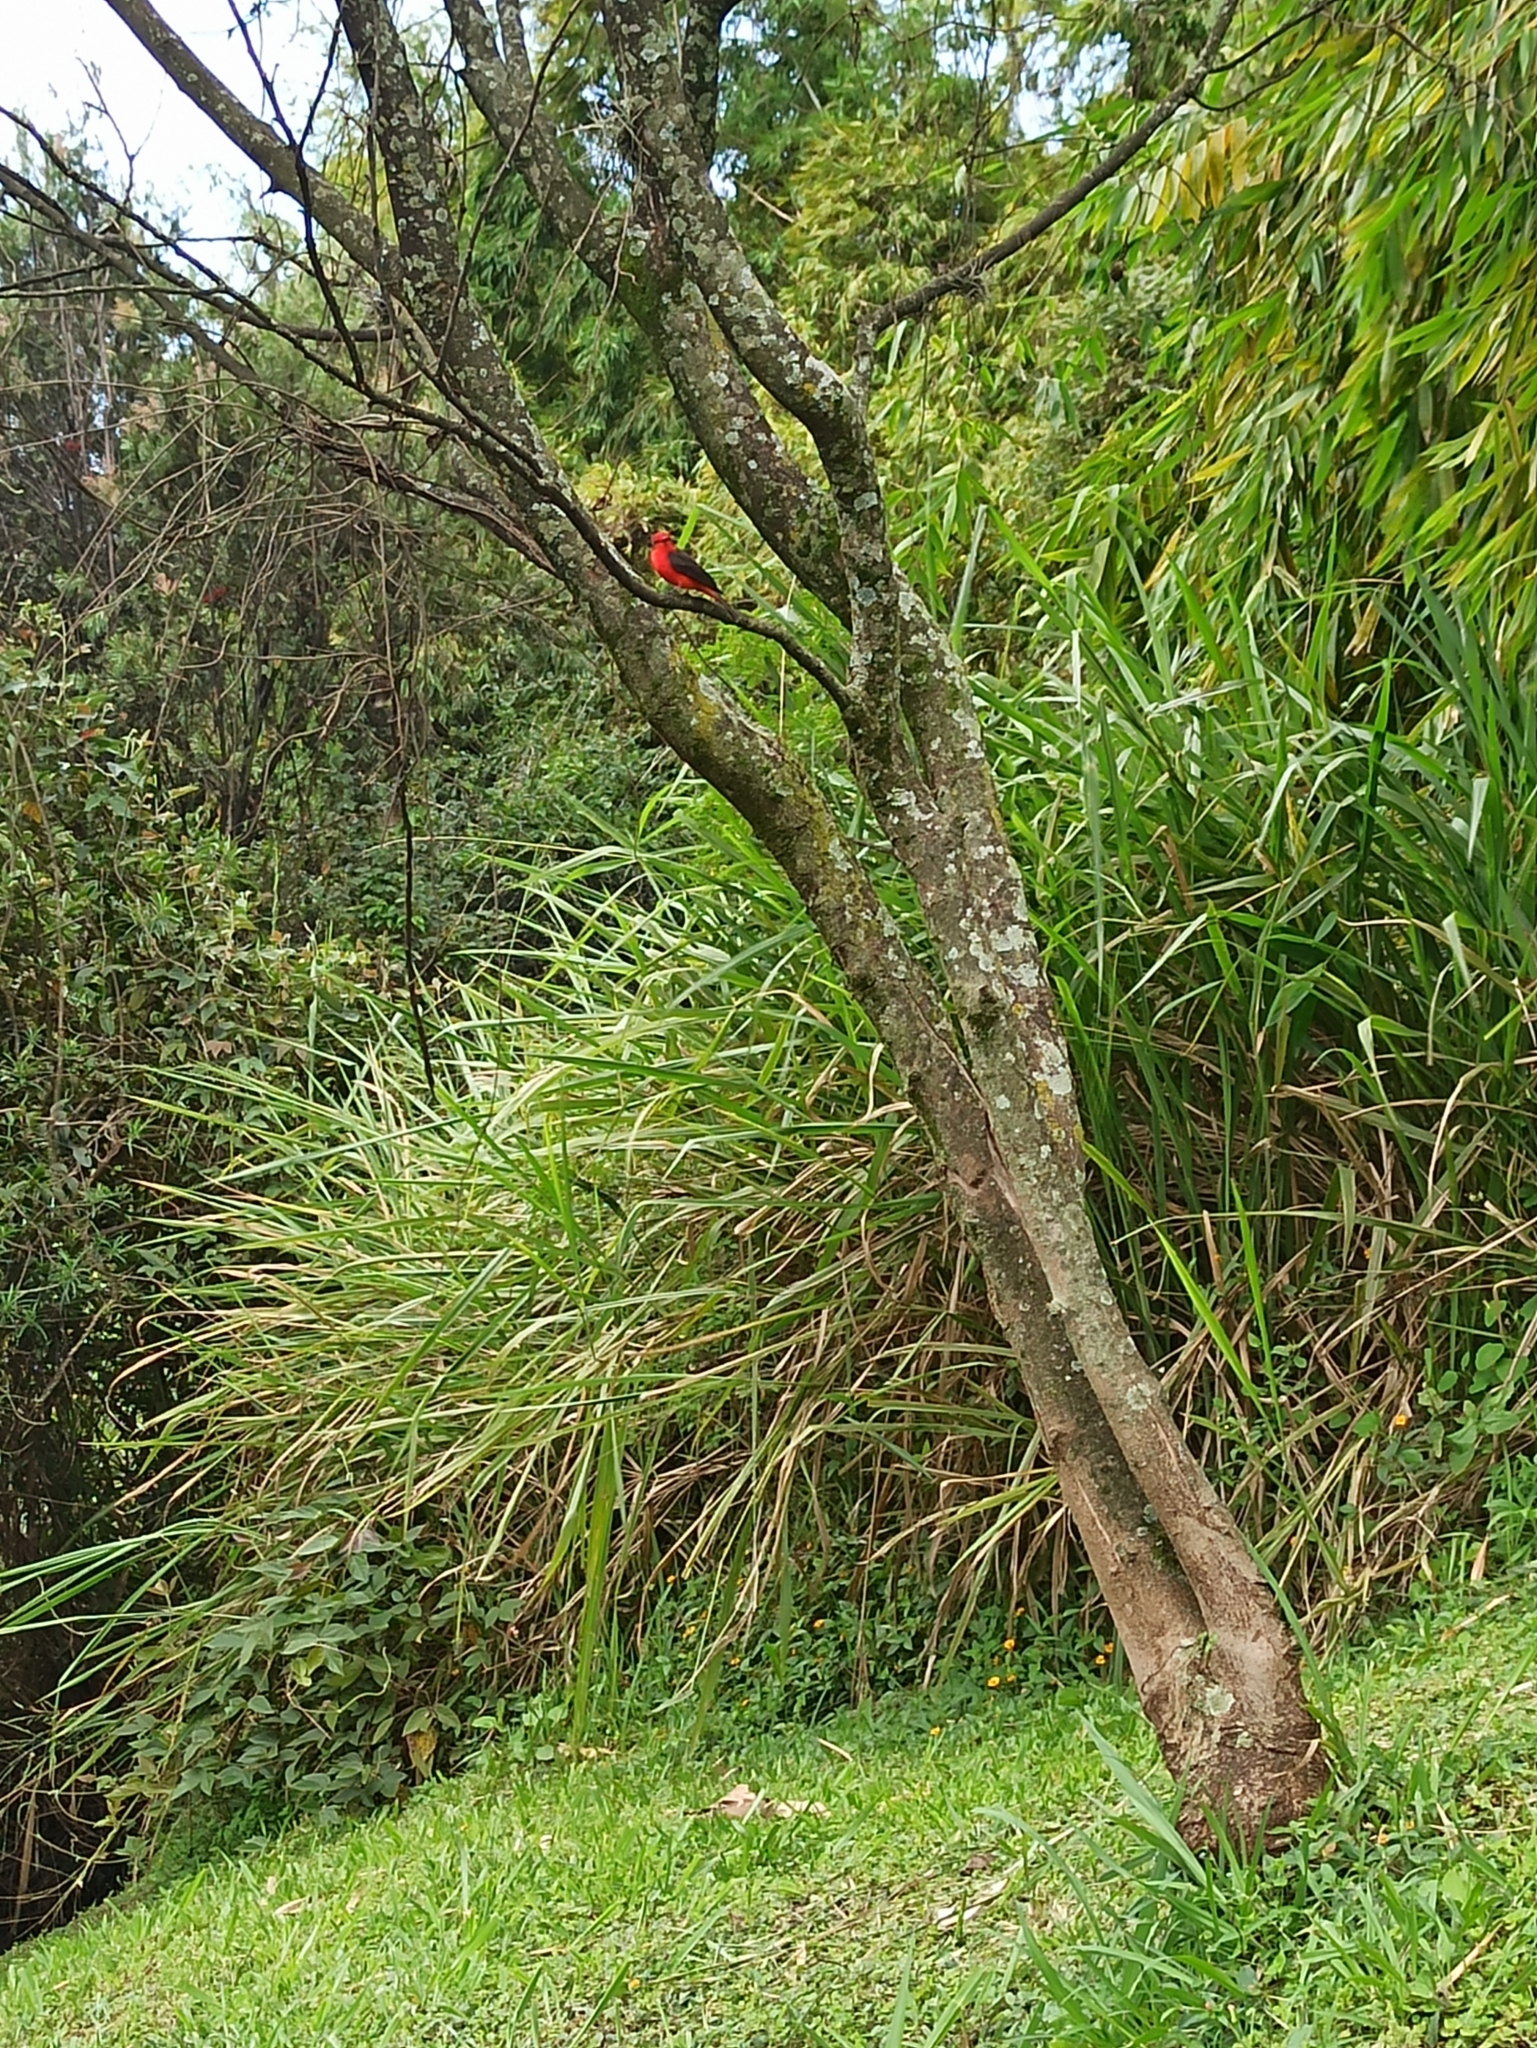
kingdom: Animalia
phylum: Chordata
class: Aves
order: Passeriformes
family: Tyrannidae
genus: Pyrocephalus
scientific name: Pyrocephalus rubinus
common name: Vermilion flycatcher
